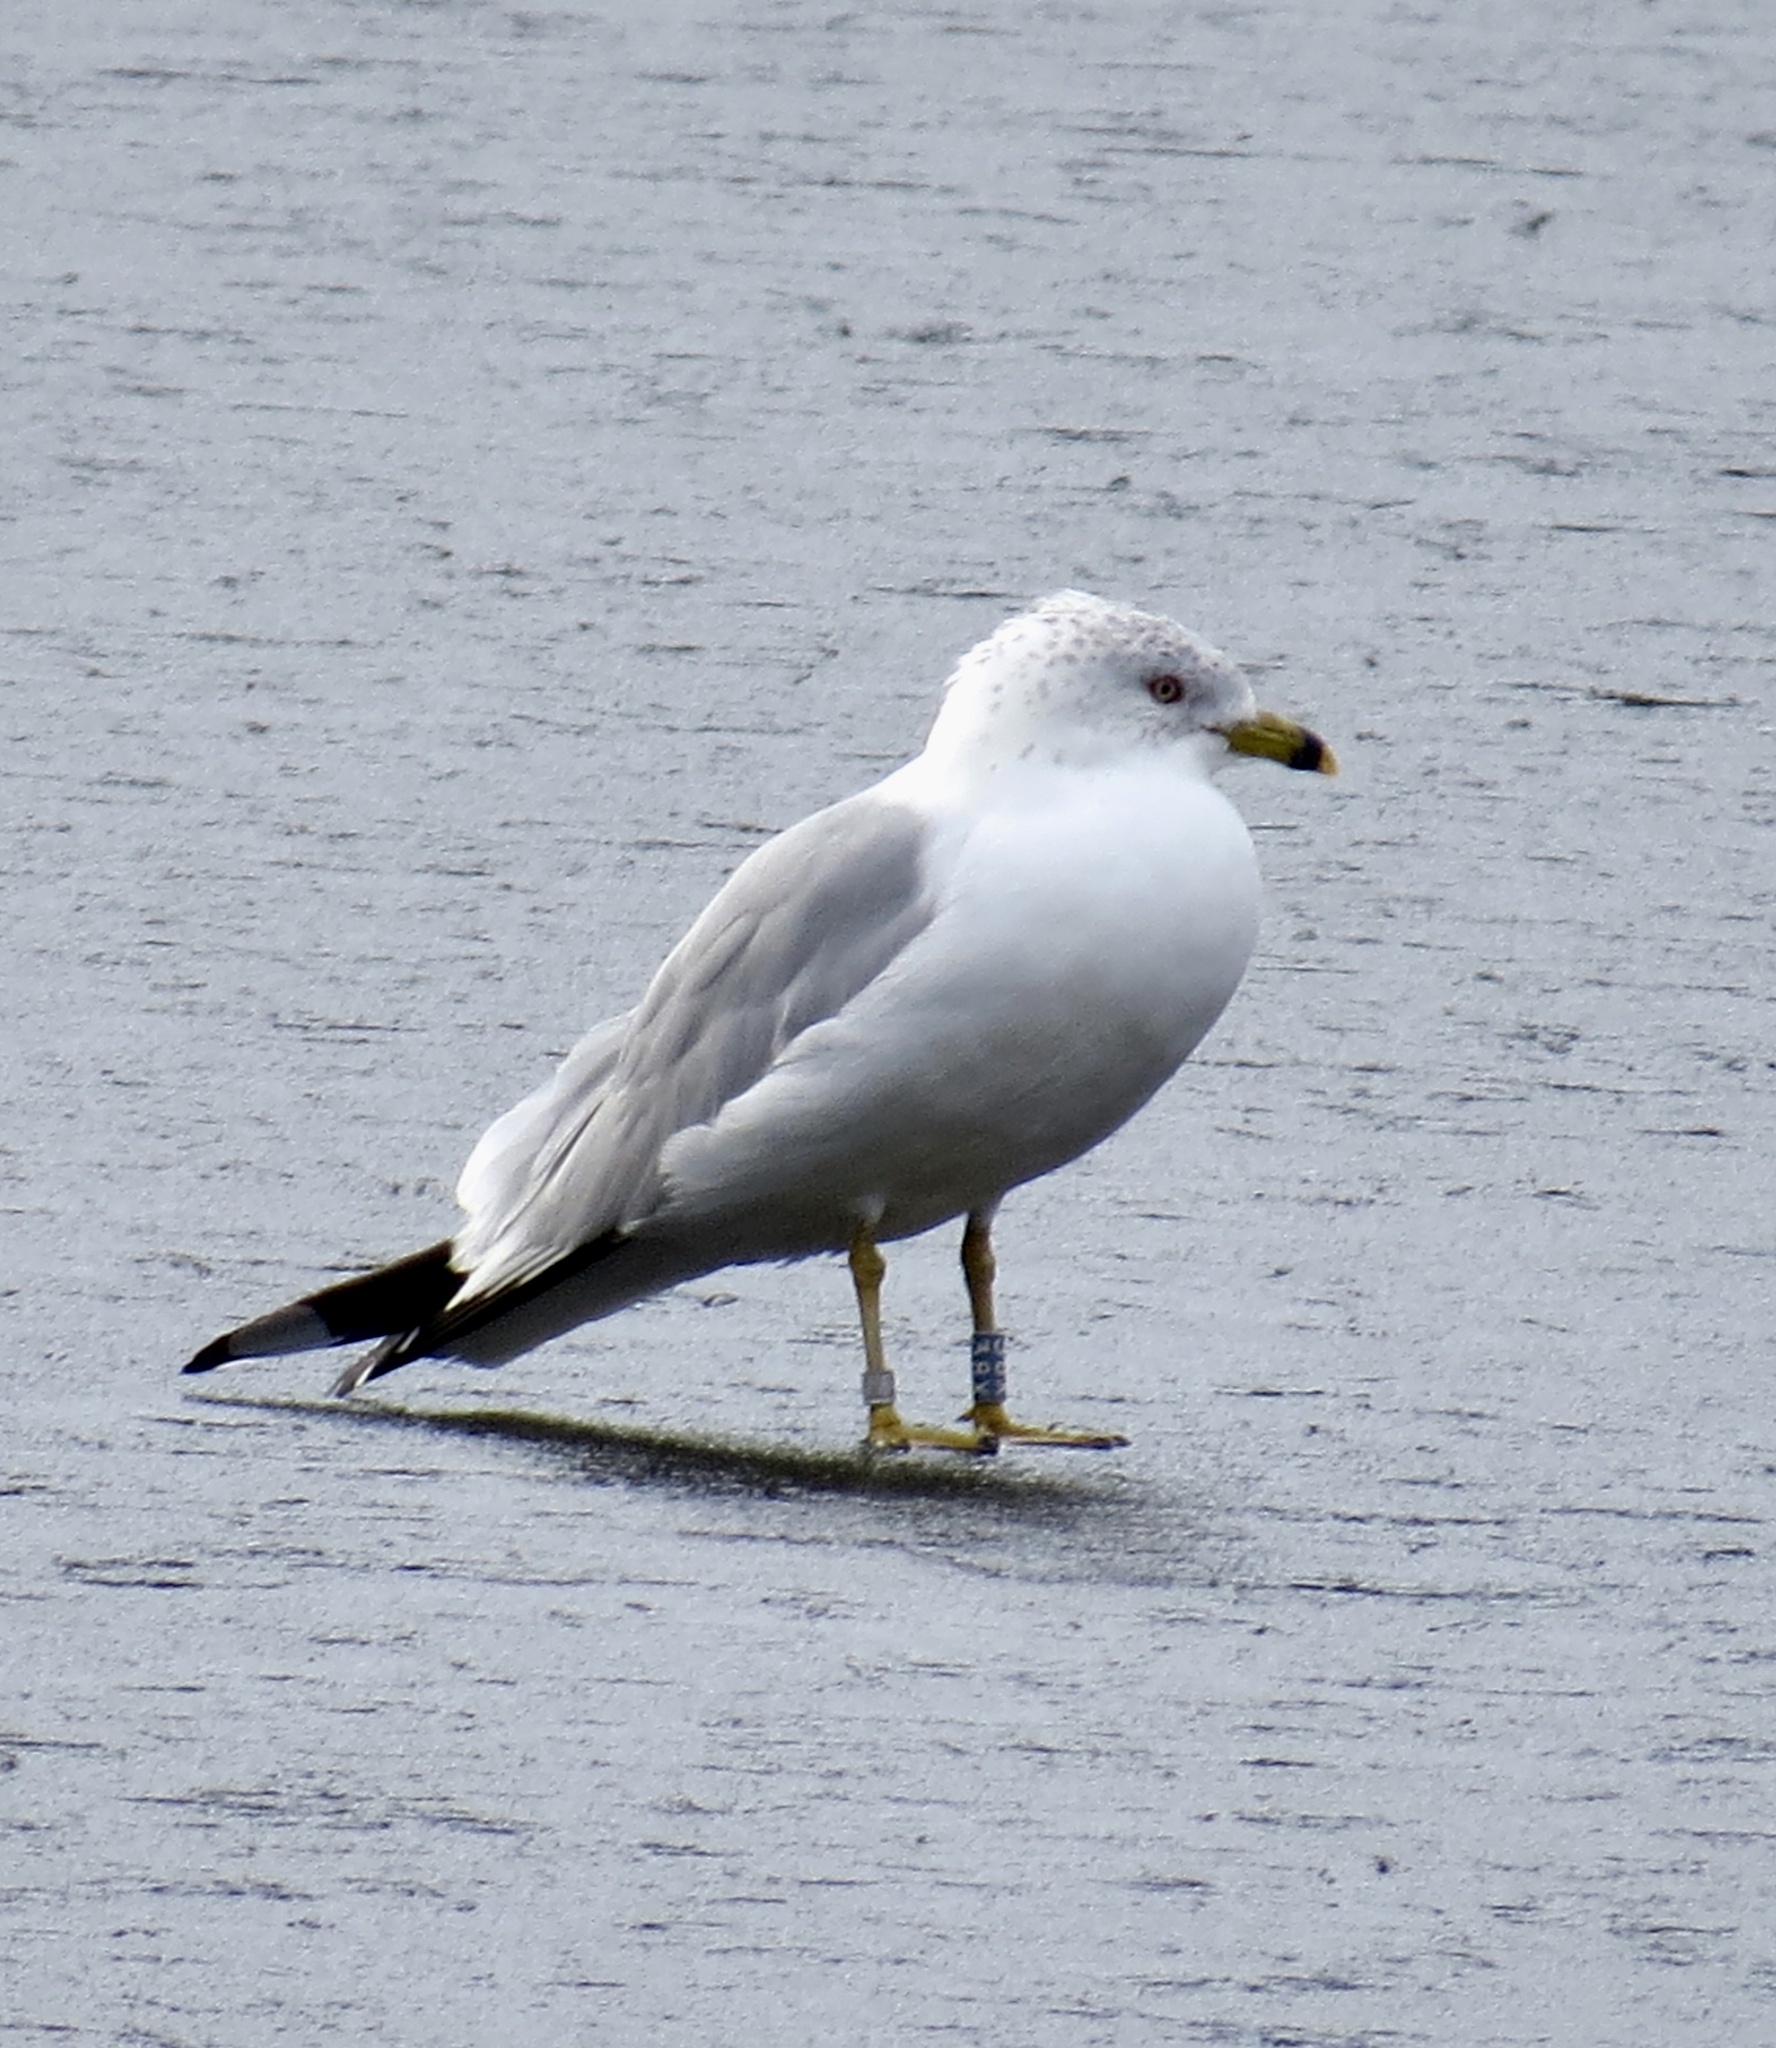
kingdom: Animalia
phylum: Chordata
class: Aves
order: Charadriiformes
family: Laridae
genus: Larus
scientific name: Larus delawarensis
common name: Ring-billed gull
